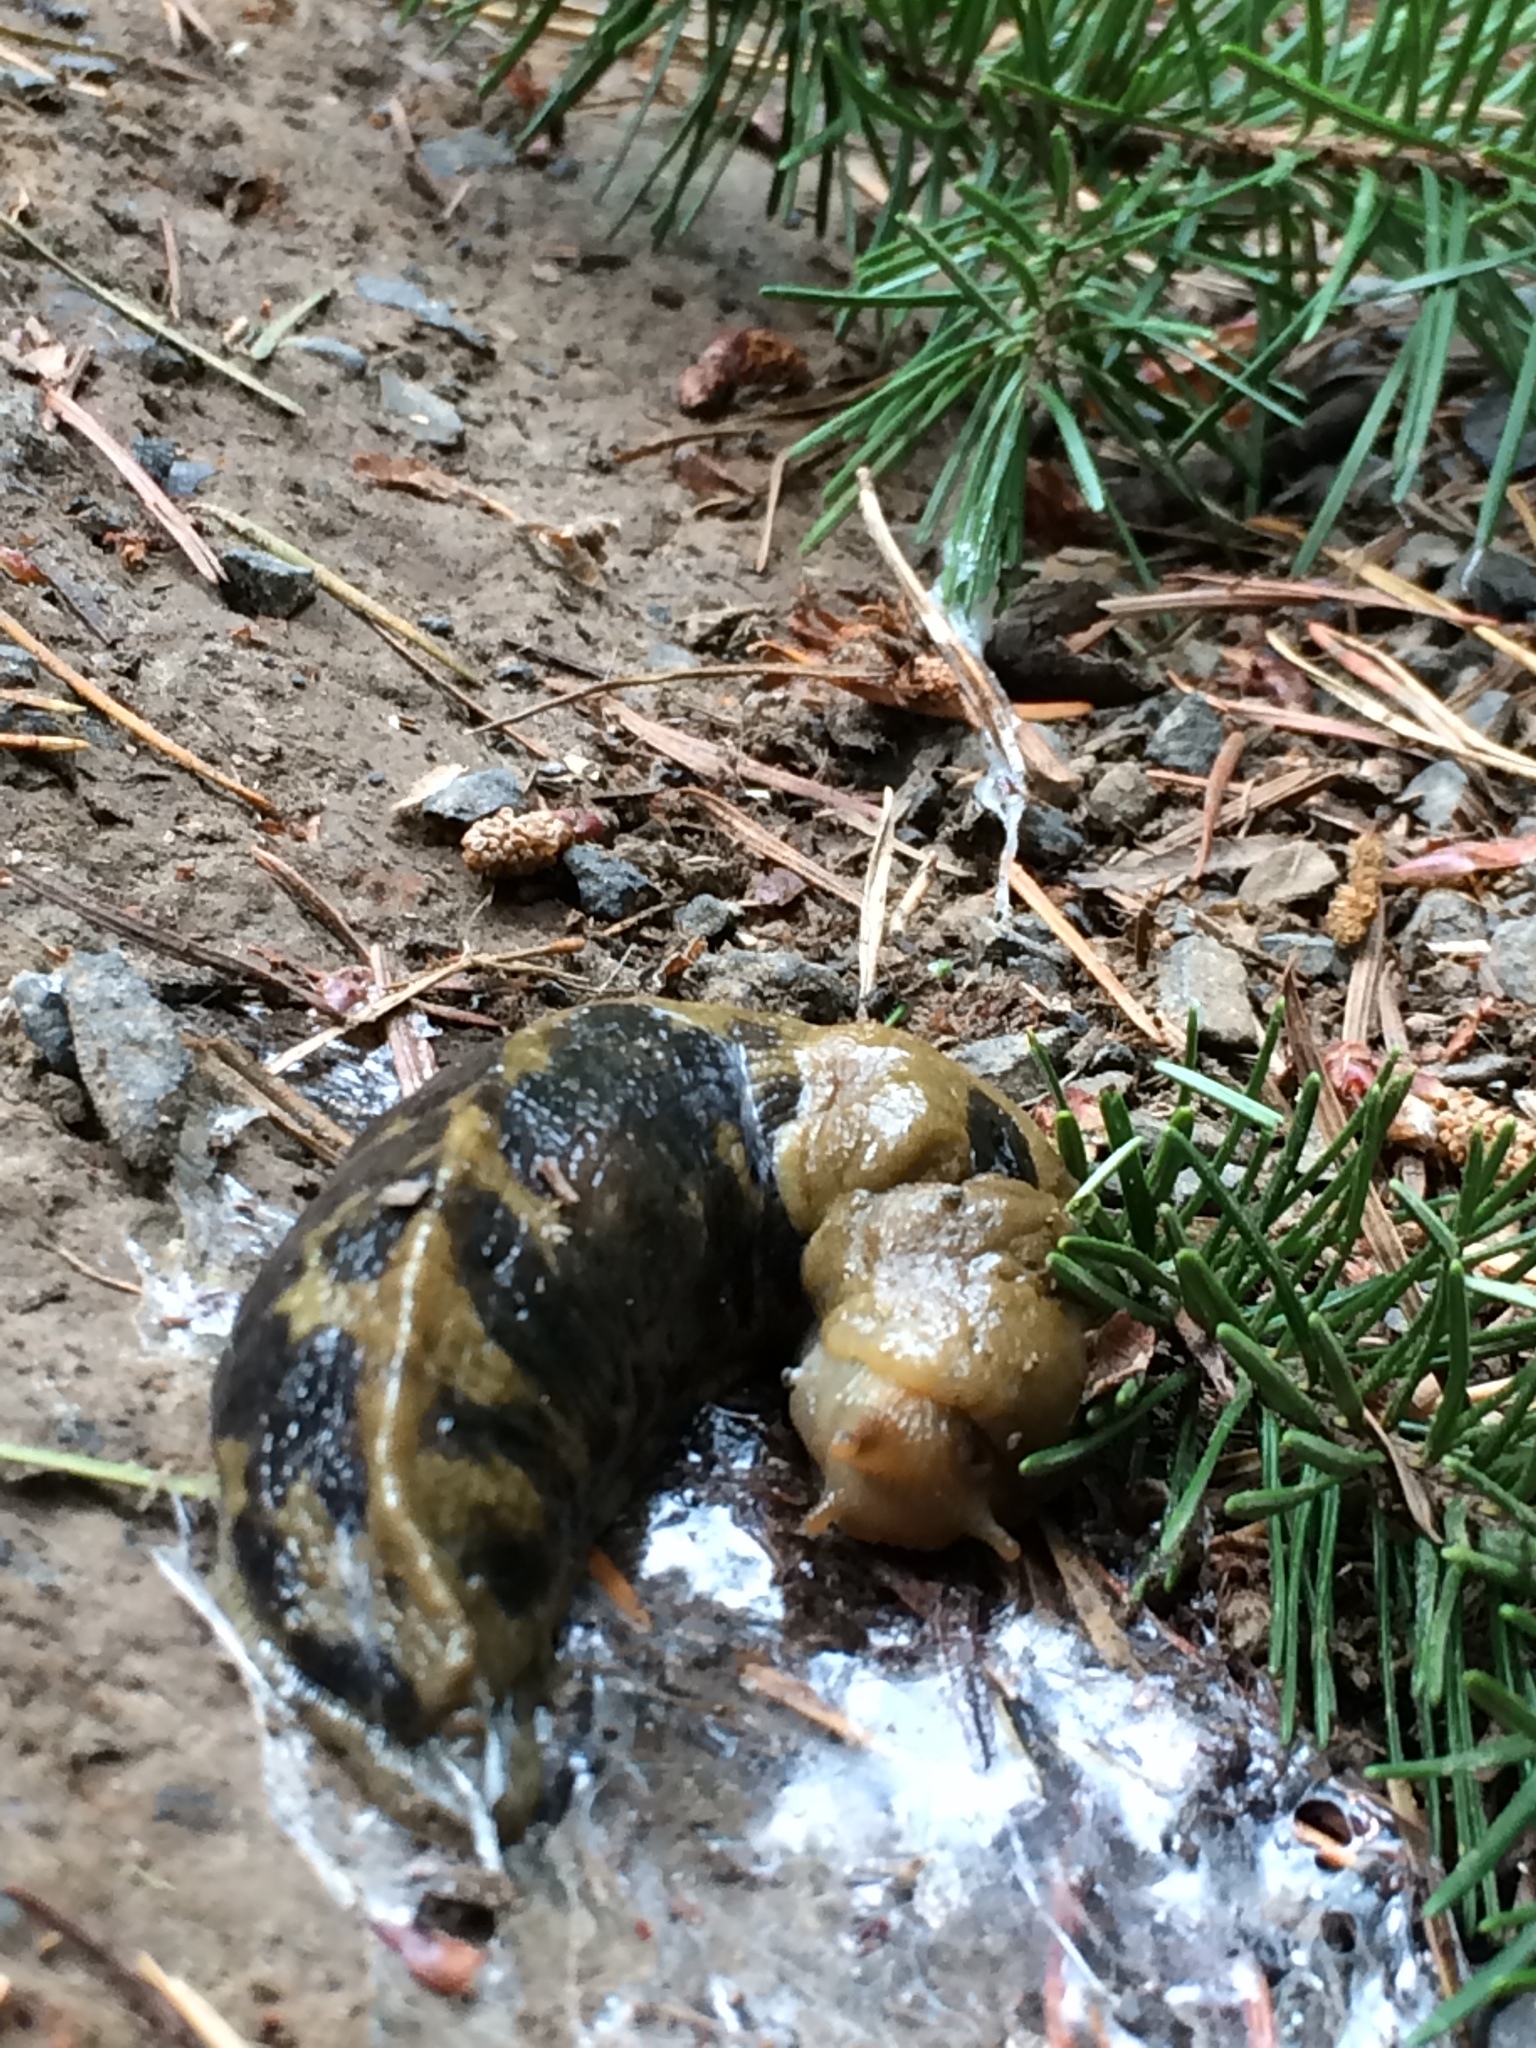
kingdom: Animalia
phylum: Mollusca
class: Gastropoda
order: Stylommatophora
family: Ariolimacidae
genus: Ariolimax
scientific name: Ariolimax columbianus
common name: Pacific banana slug
